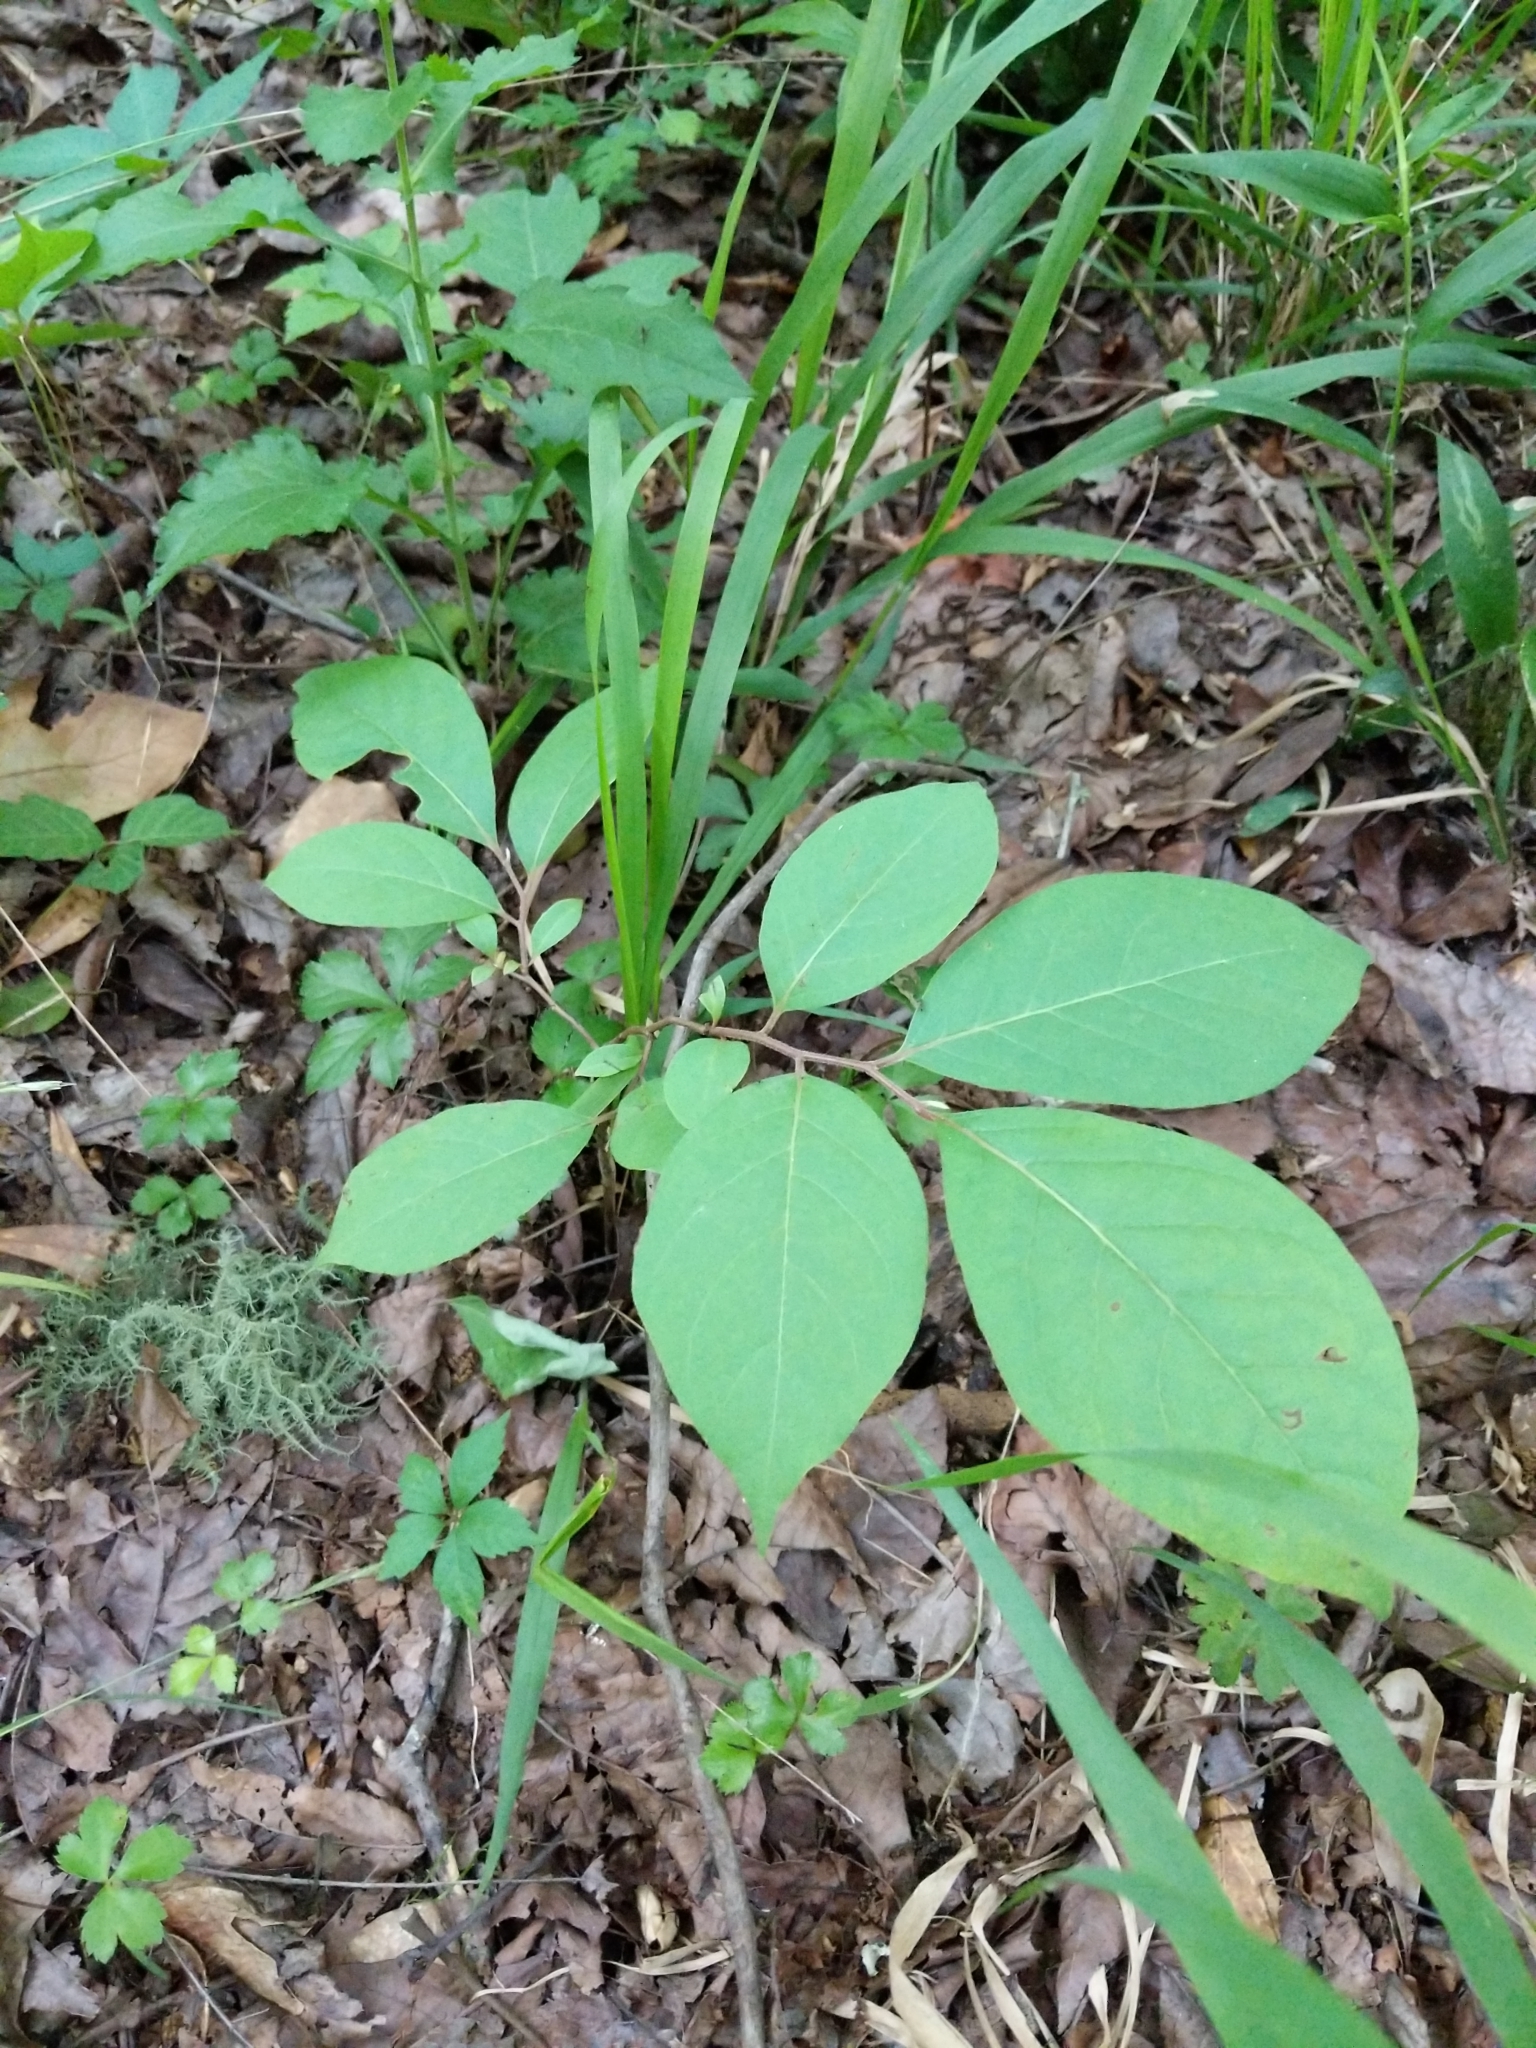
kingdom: Plantae
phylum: Tracheophyta
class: Magnoliopsida
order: Ericales
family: Ebenaceae
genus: Diospyros
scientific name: Diospyros virginiana
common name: Persimmon
